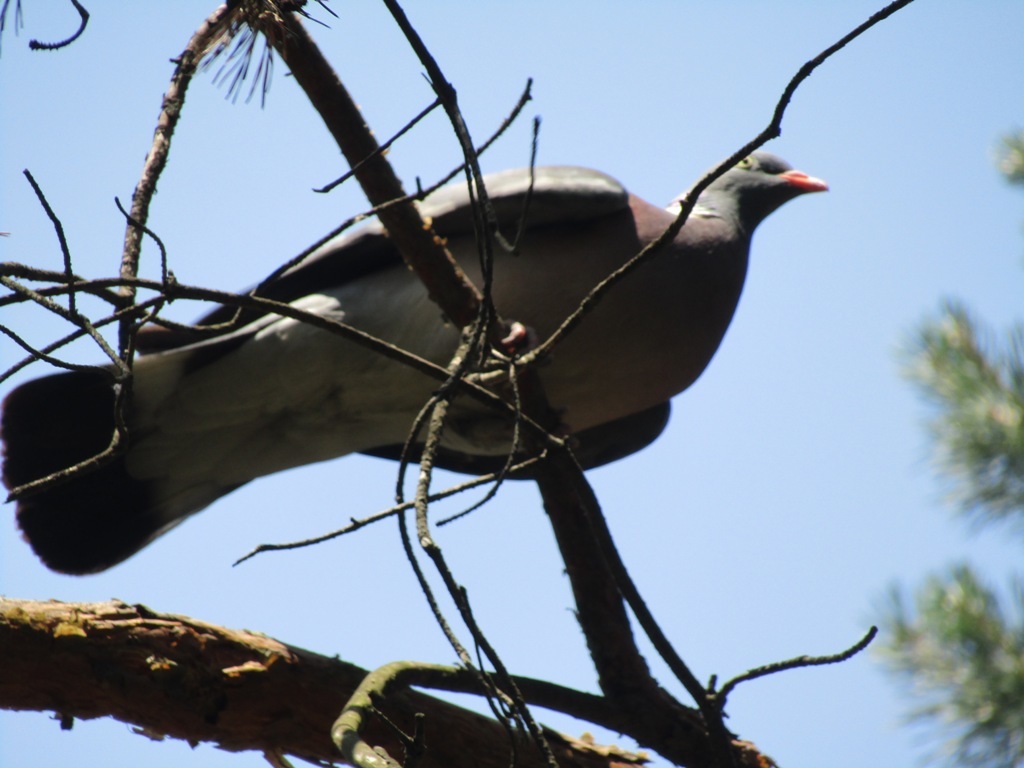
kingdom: Animalia
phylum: Chordata
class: Aves
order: Columbiformes
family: Columbidae
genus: Columba
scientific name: Columba palumbus
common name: Common wood pigeon
